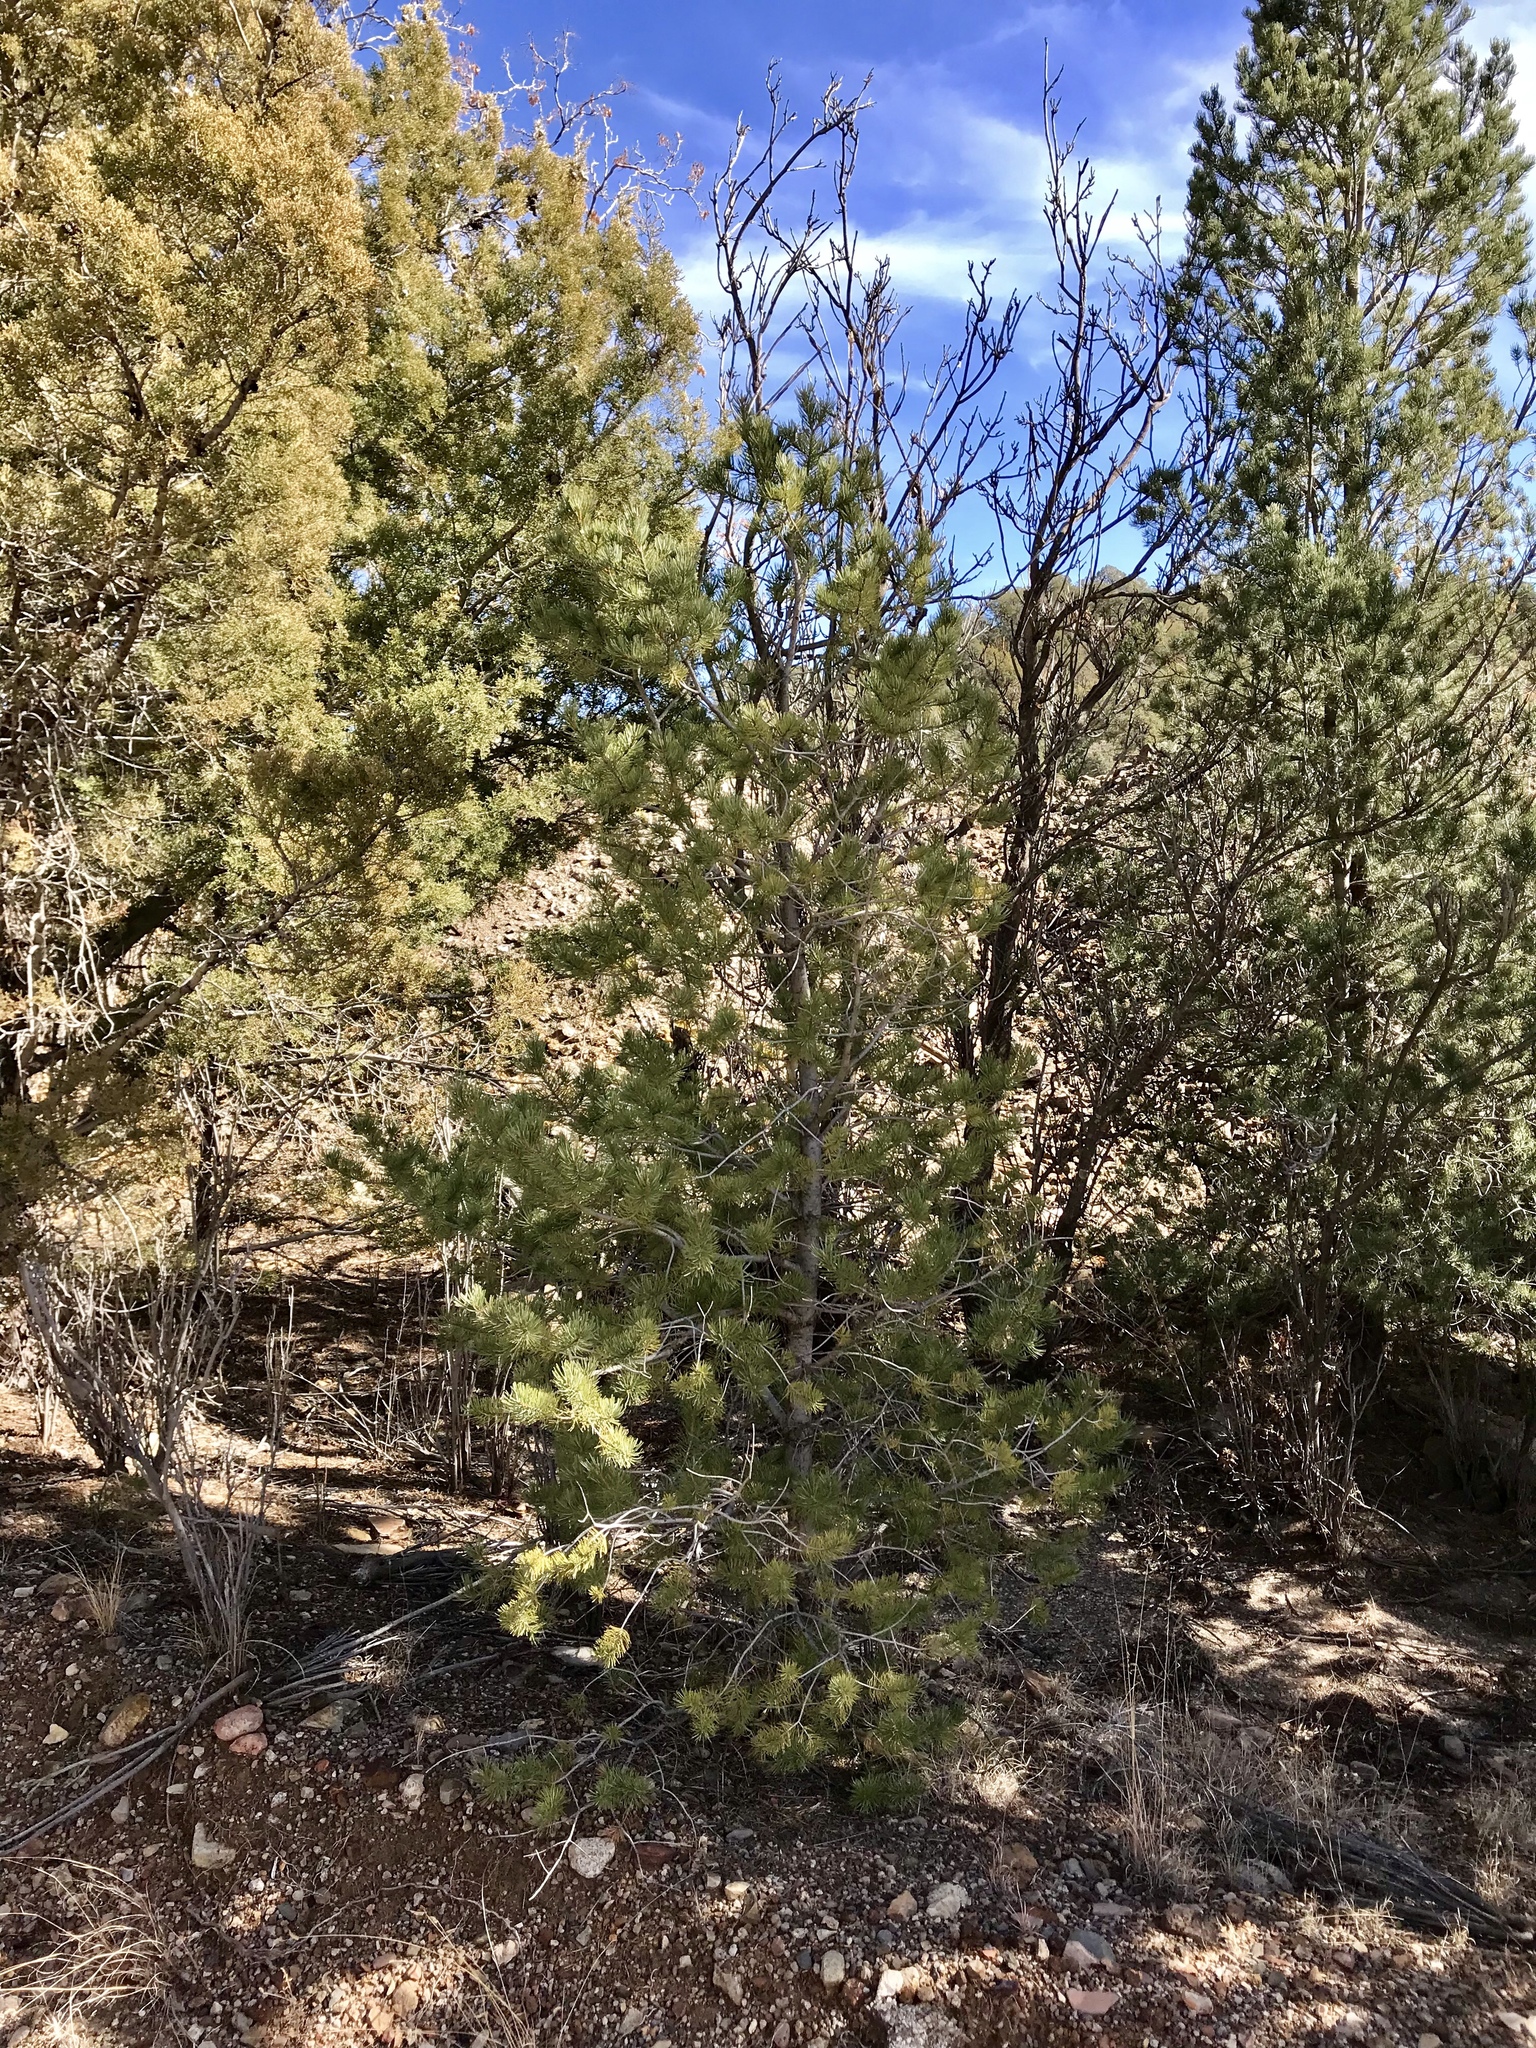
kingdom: Plantae
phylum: Tracheophyta
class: Pinopsida
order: Pinales
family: Pinaceae
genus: Pinus
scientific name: Pinus edulis
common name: Colorado pinyon
